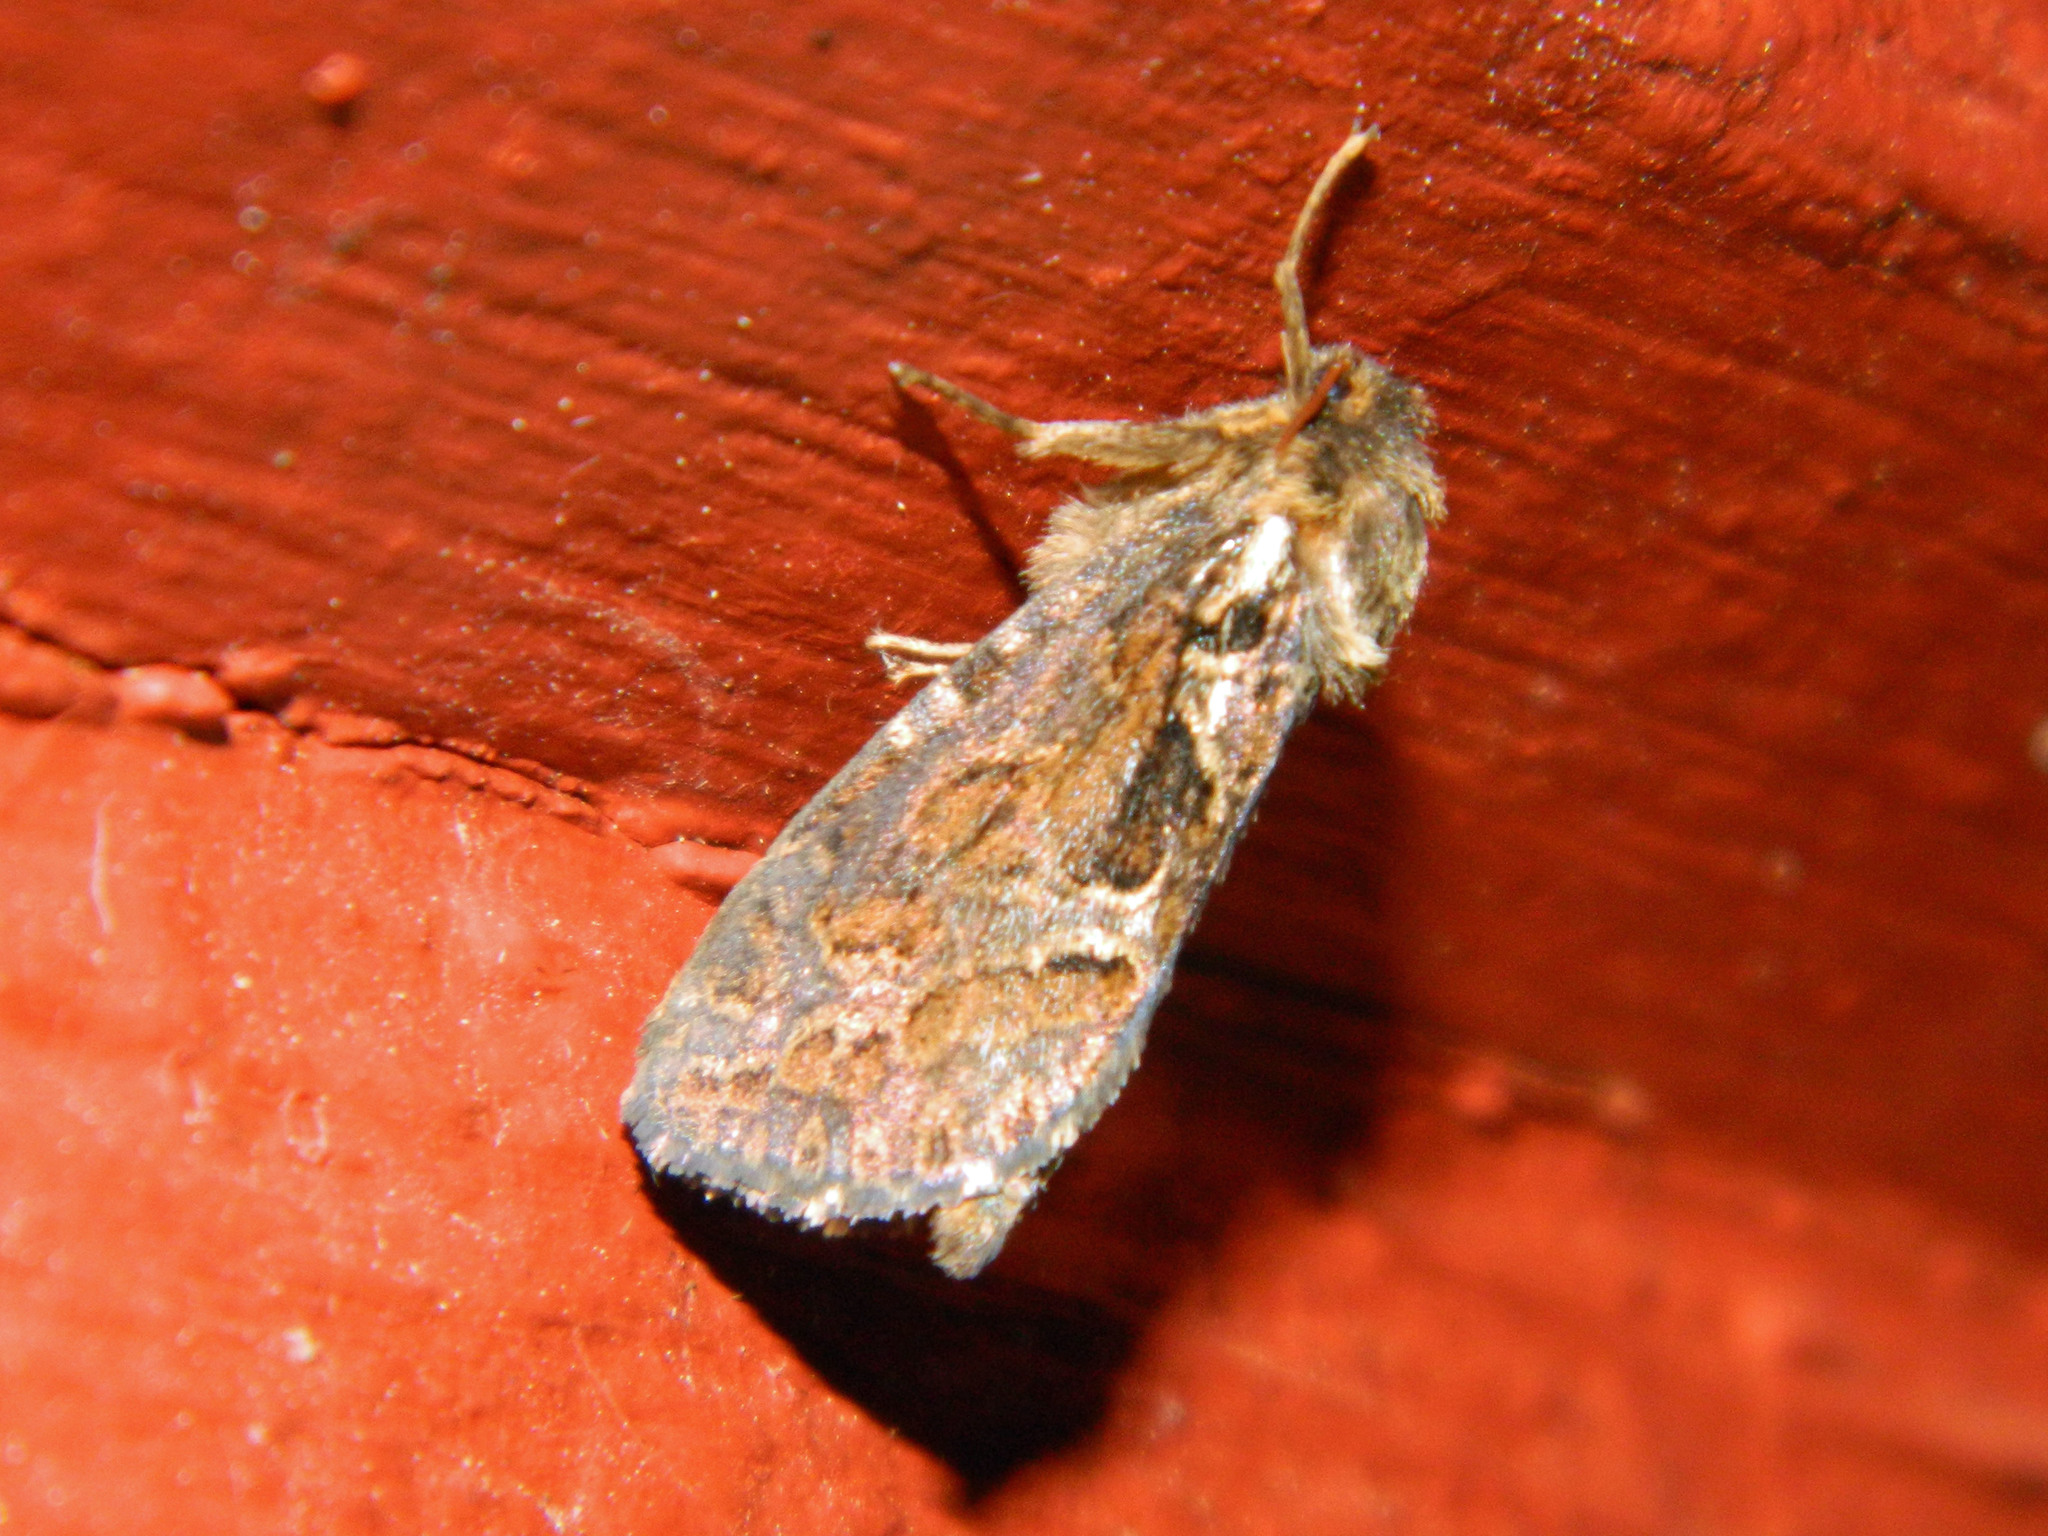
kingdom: Animalia
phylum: Arthropoda
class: Insecta
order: Lepidoptera
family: Hepialidae
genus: Korscheltellus
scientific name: Korscheltellus gracilis
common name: Conifer swift moth
